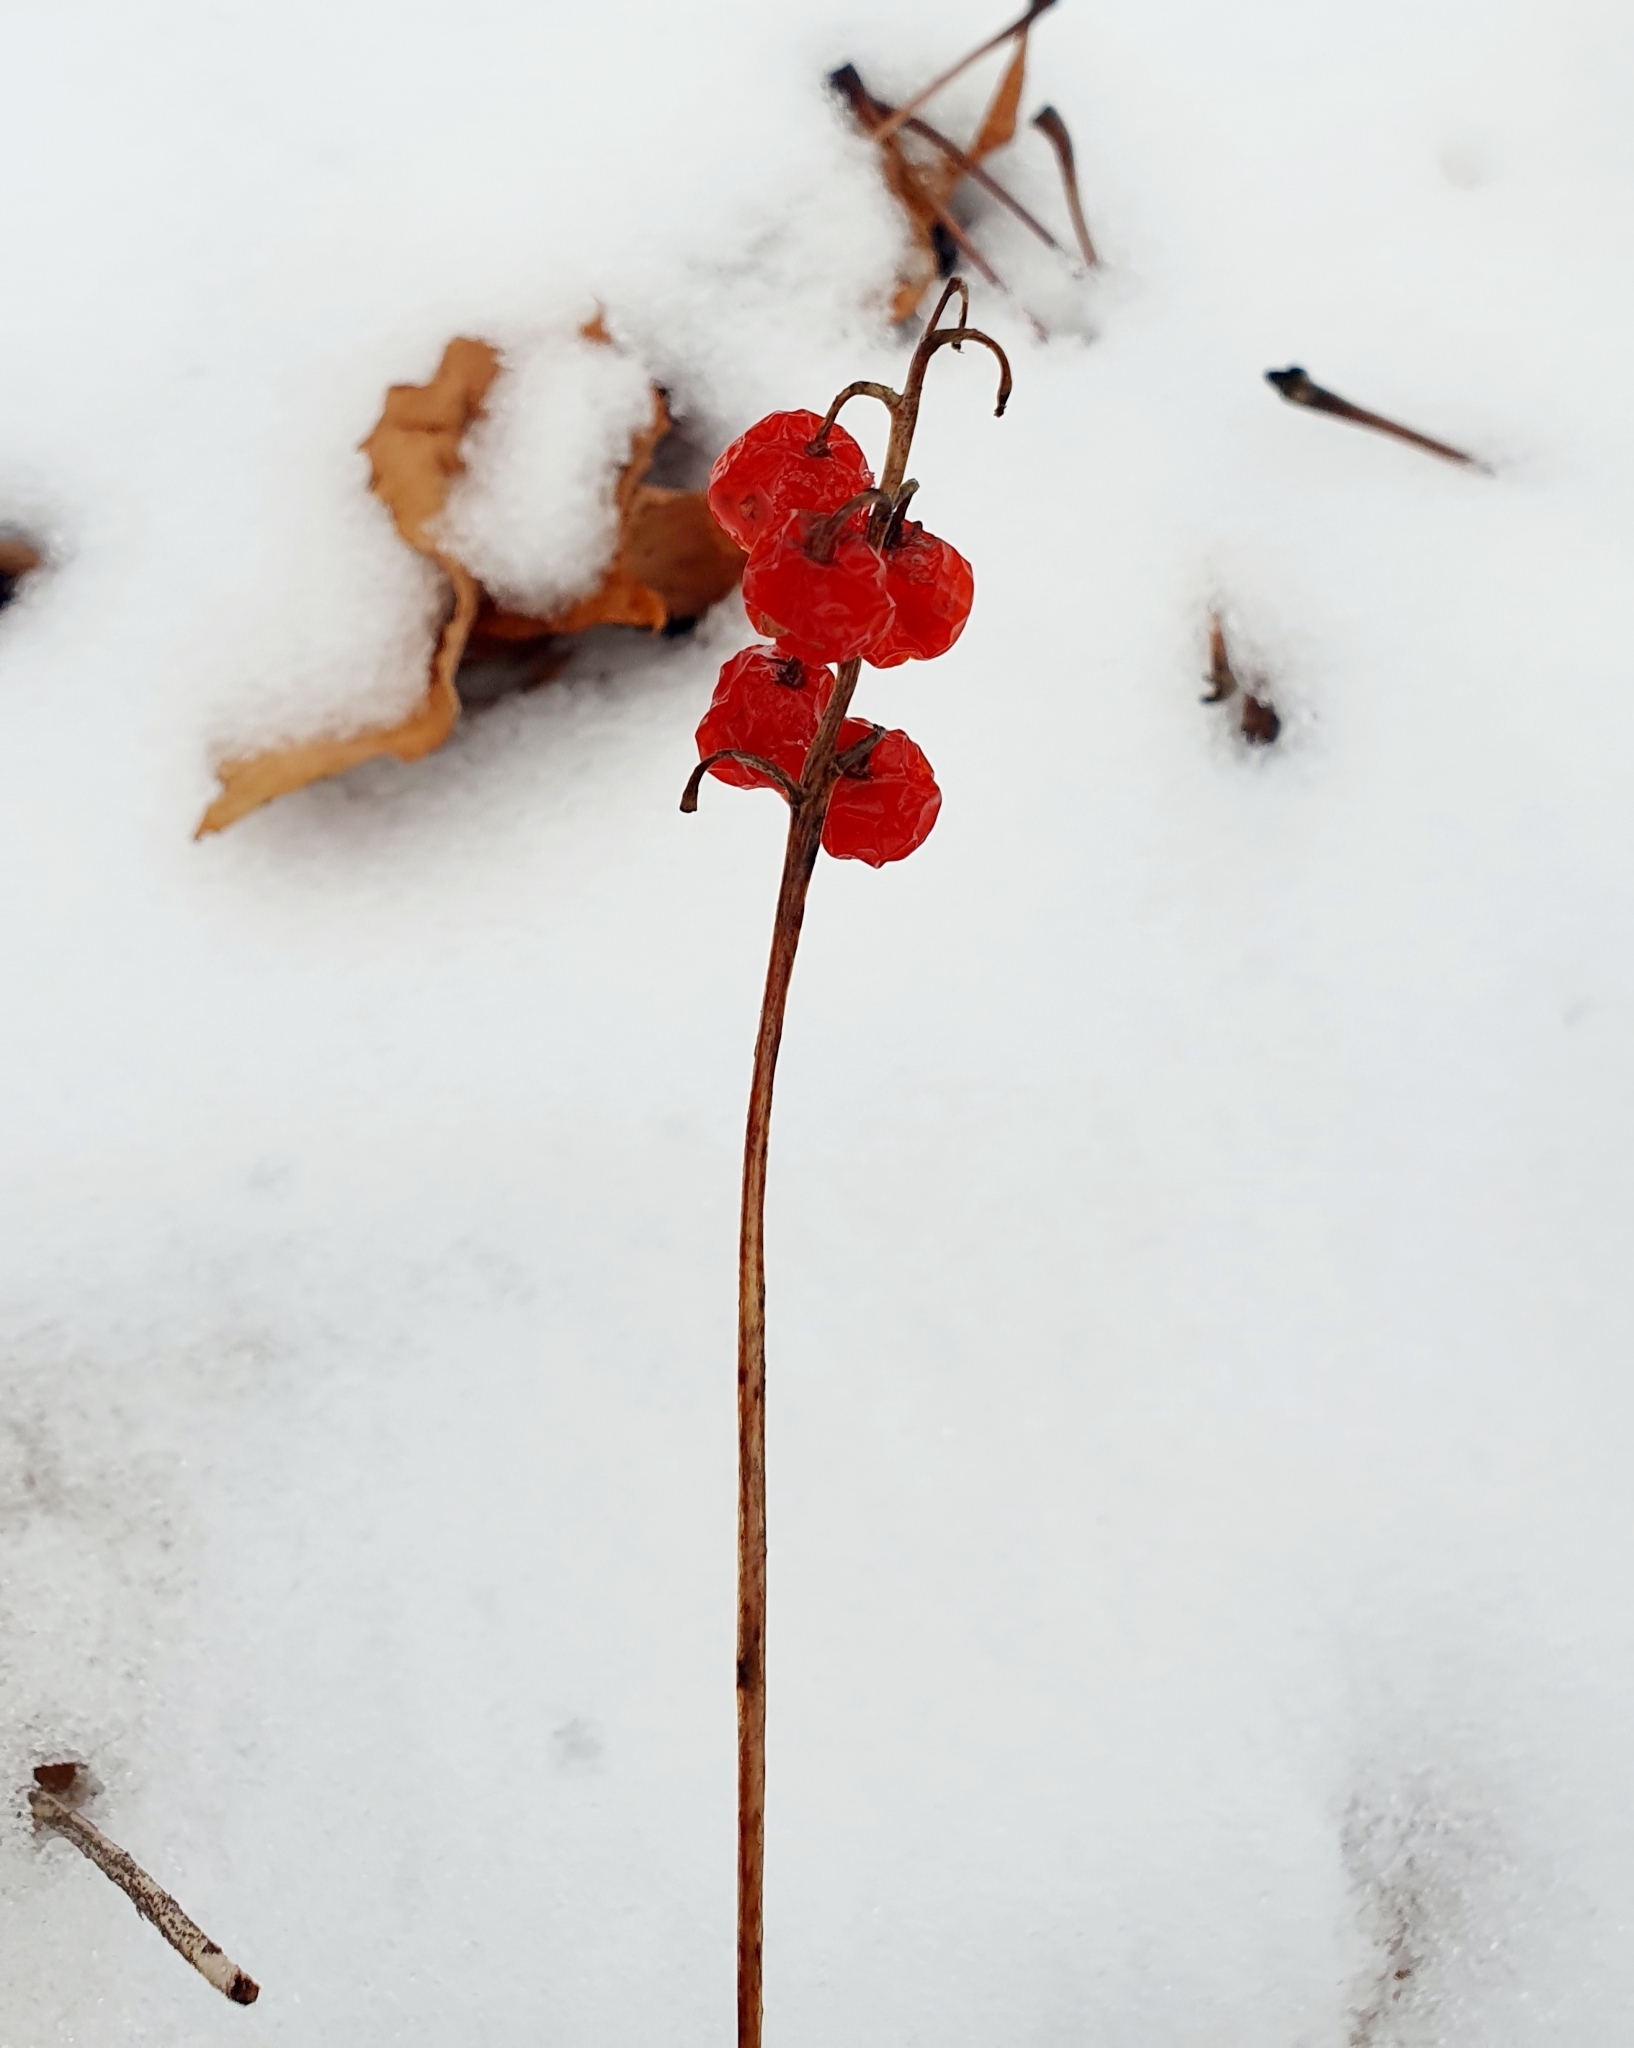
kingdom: Plantae
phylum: Tracheophyta
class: Liliopsida
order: Asparagales
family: Asparagaceae
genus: Convallaria
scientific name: Convallaria majalis
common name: Lily-of-the-valley
